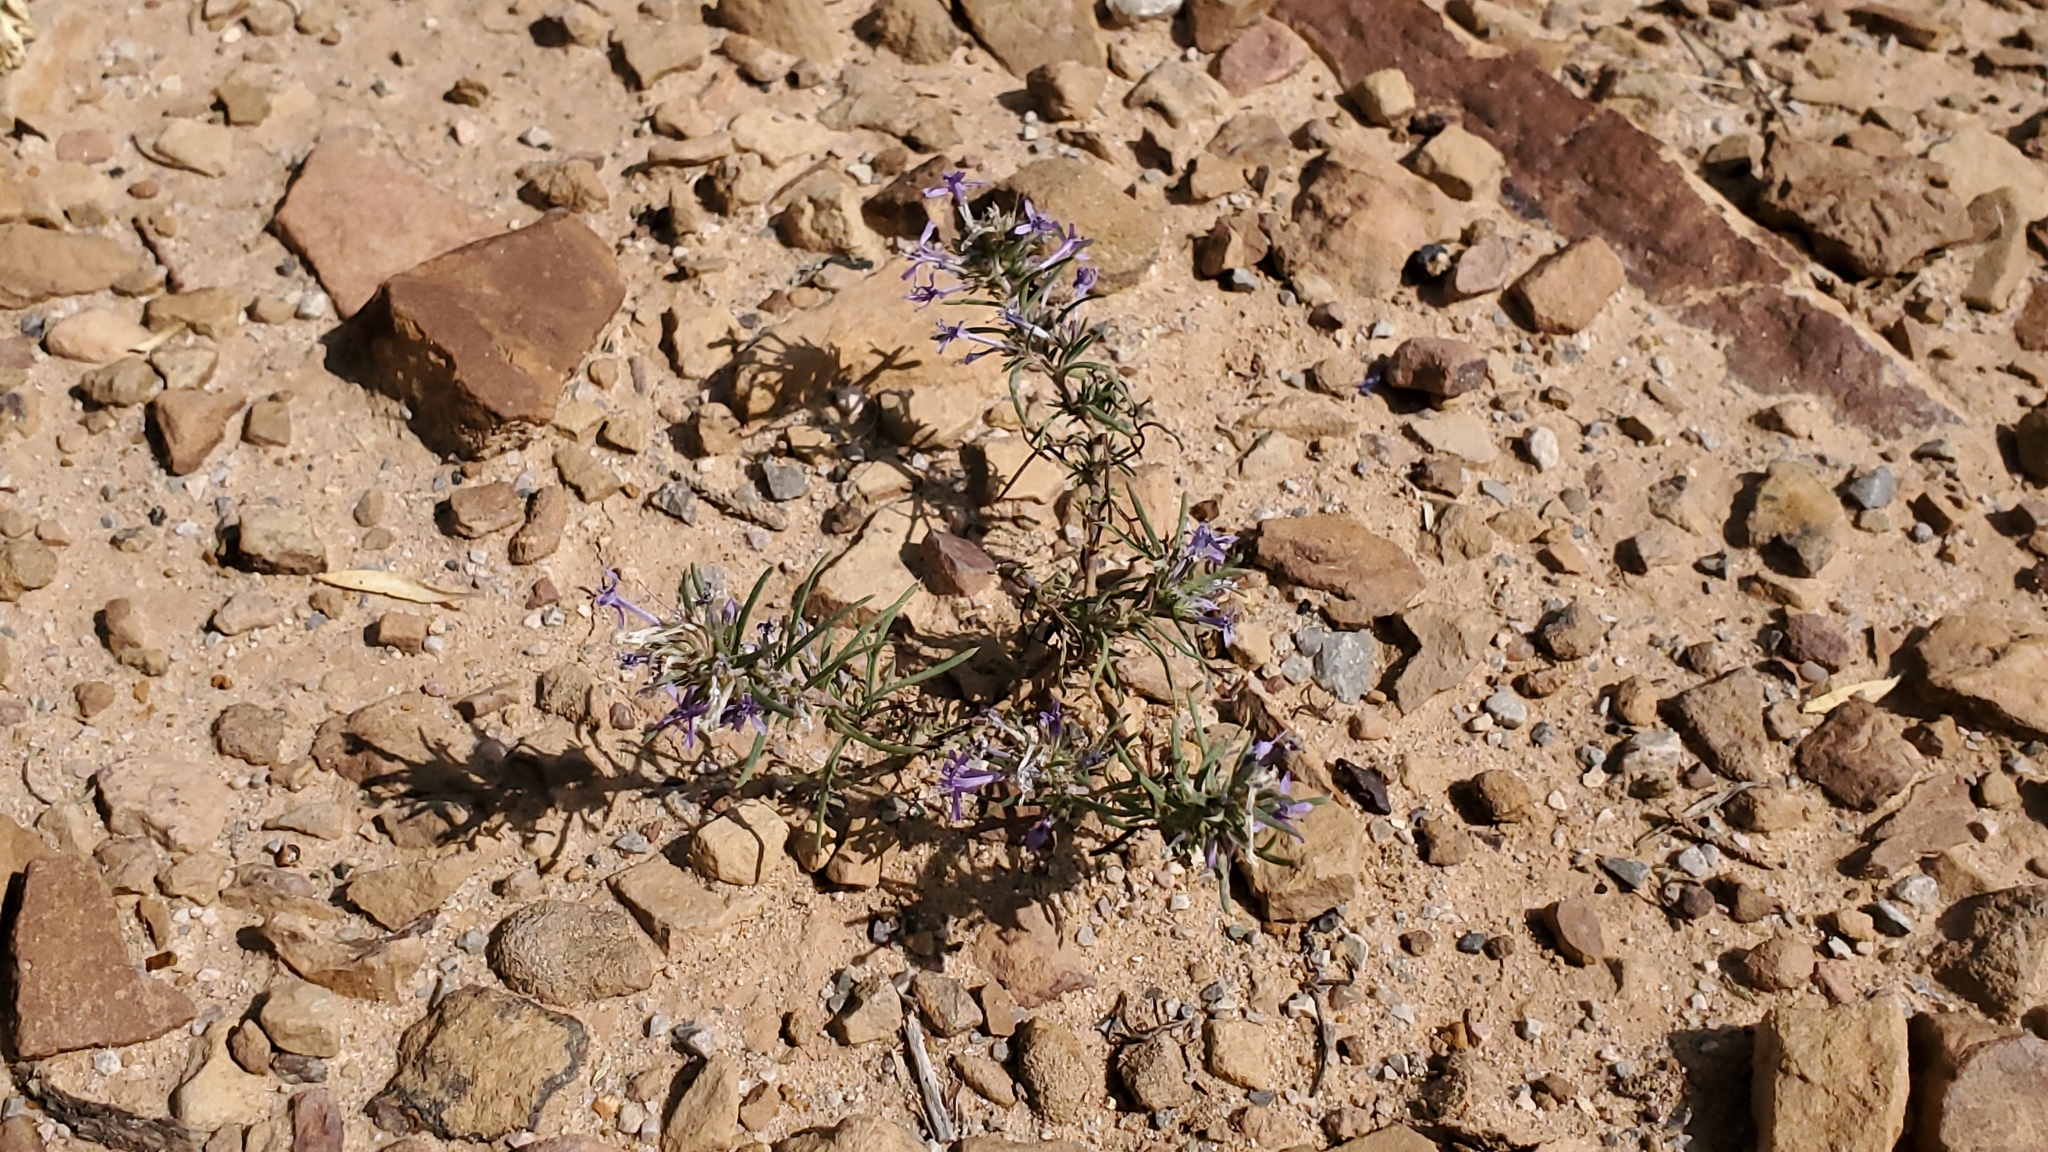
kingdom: Plantae
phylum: Tracheophyta
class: Magnoliopsida
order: Ericales
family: Polemoniaceae
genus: Ipomopsis
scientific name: Ipomopsis multiflora
